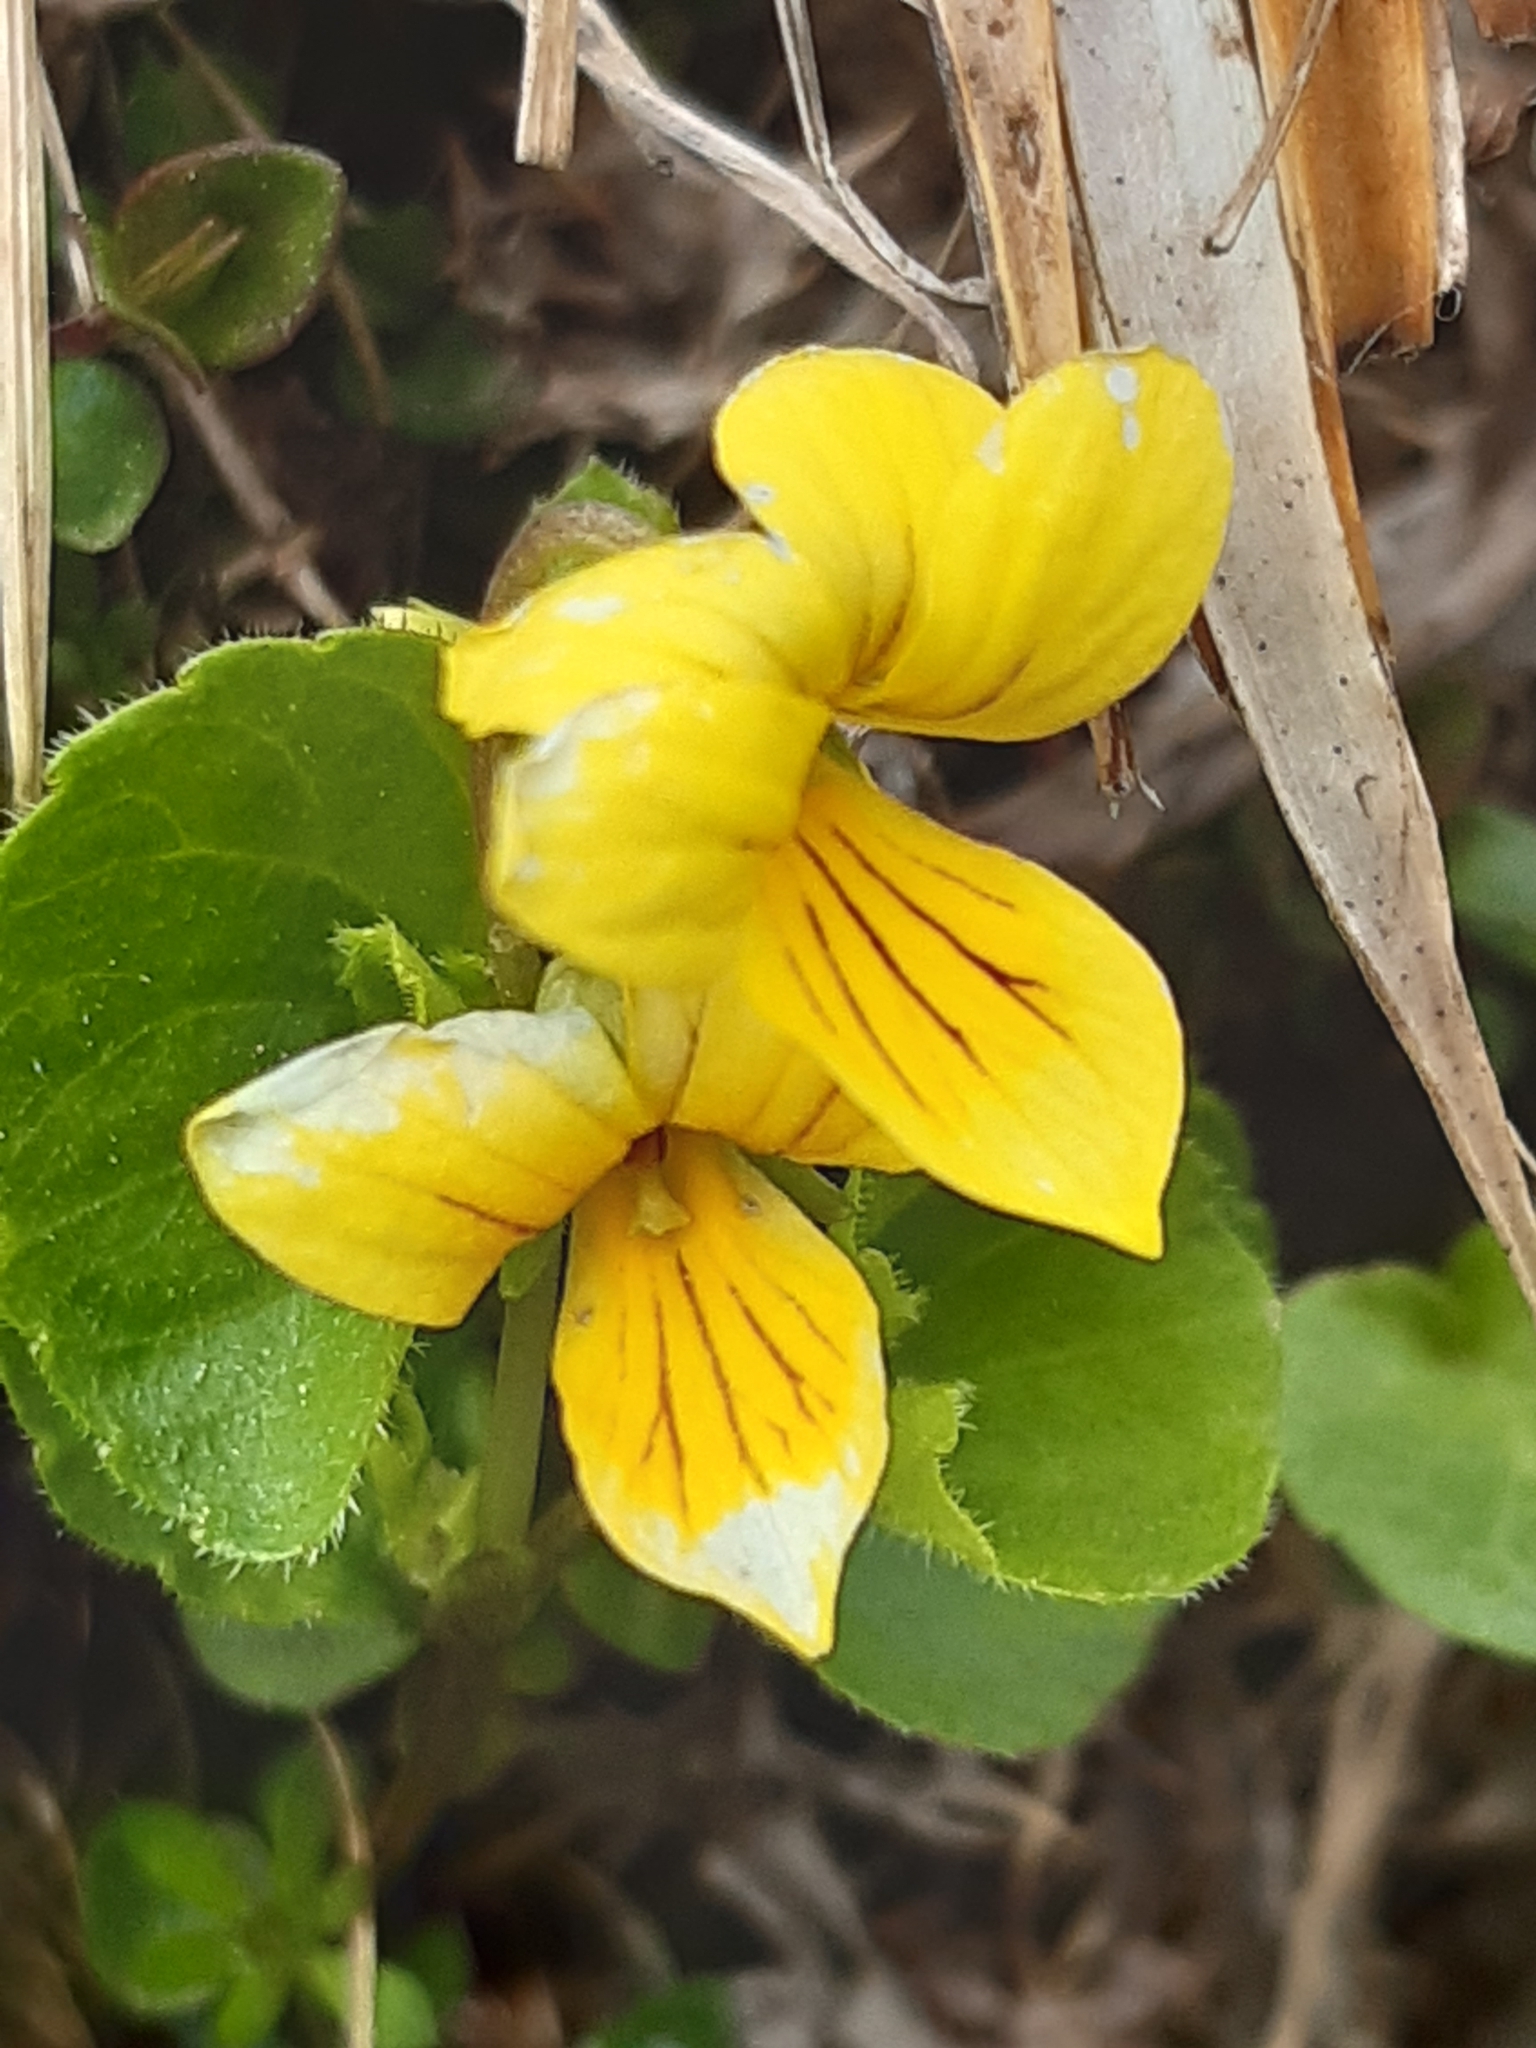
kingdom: Plantae
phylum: Tracheophyta
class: Magnoliopsida
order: Malpighiales
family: Violaceae
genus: Viola
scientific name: Viola biflora
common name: Alpine yellow violet
